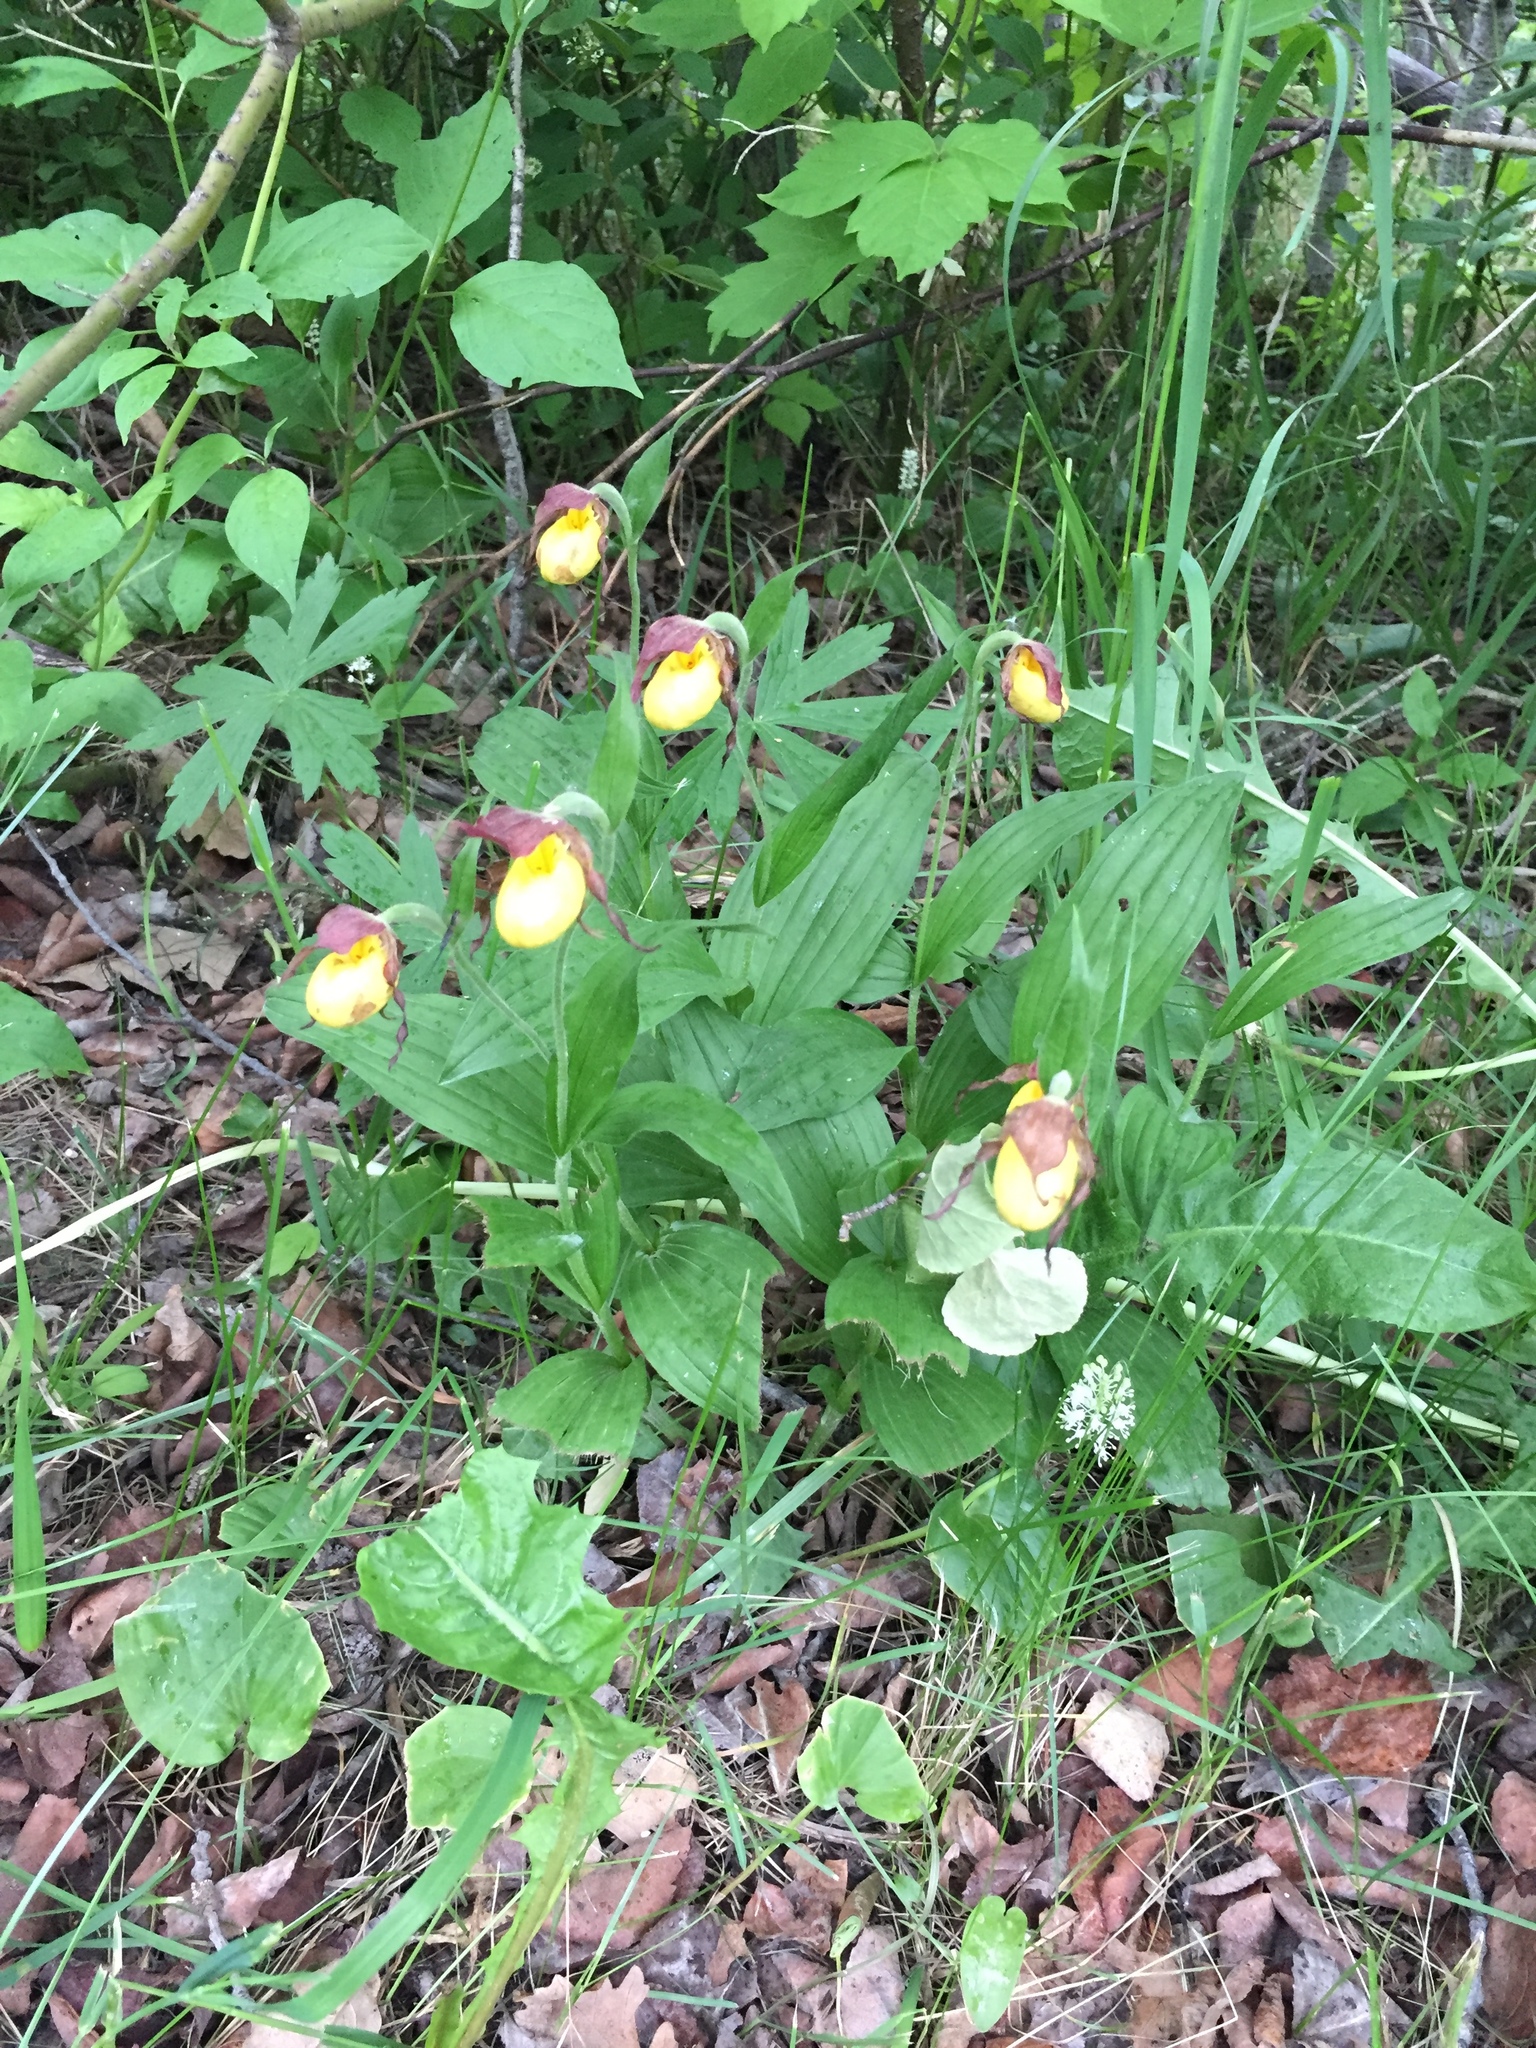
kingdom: Plantae
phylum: Tracheophyta
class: Liliopsida
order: Asparagales
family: Orchidaceae
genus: Cypripedium
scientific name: Cypripedium parviflorum
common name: American yellow lady's-slipper
